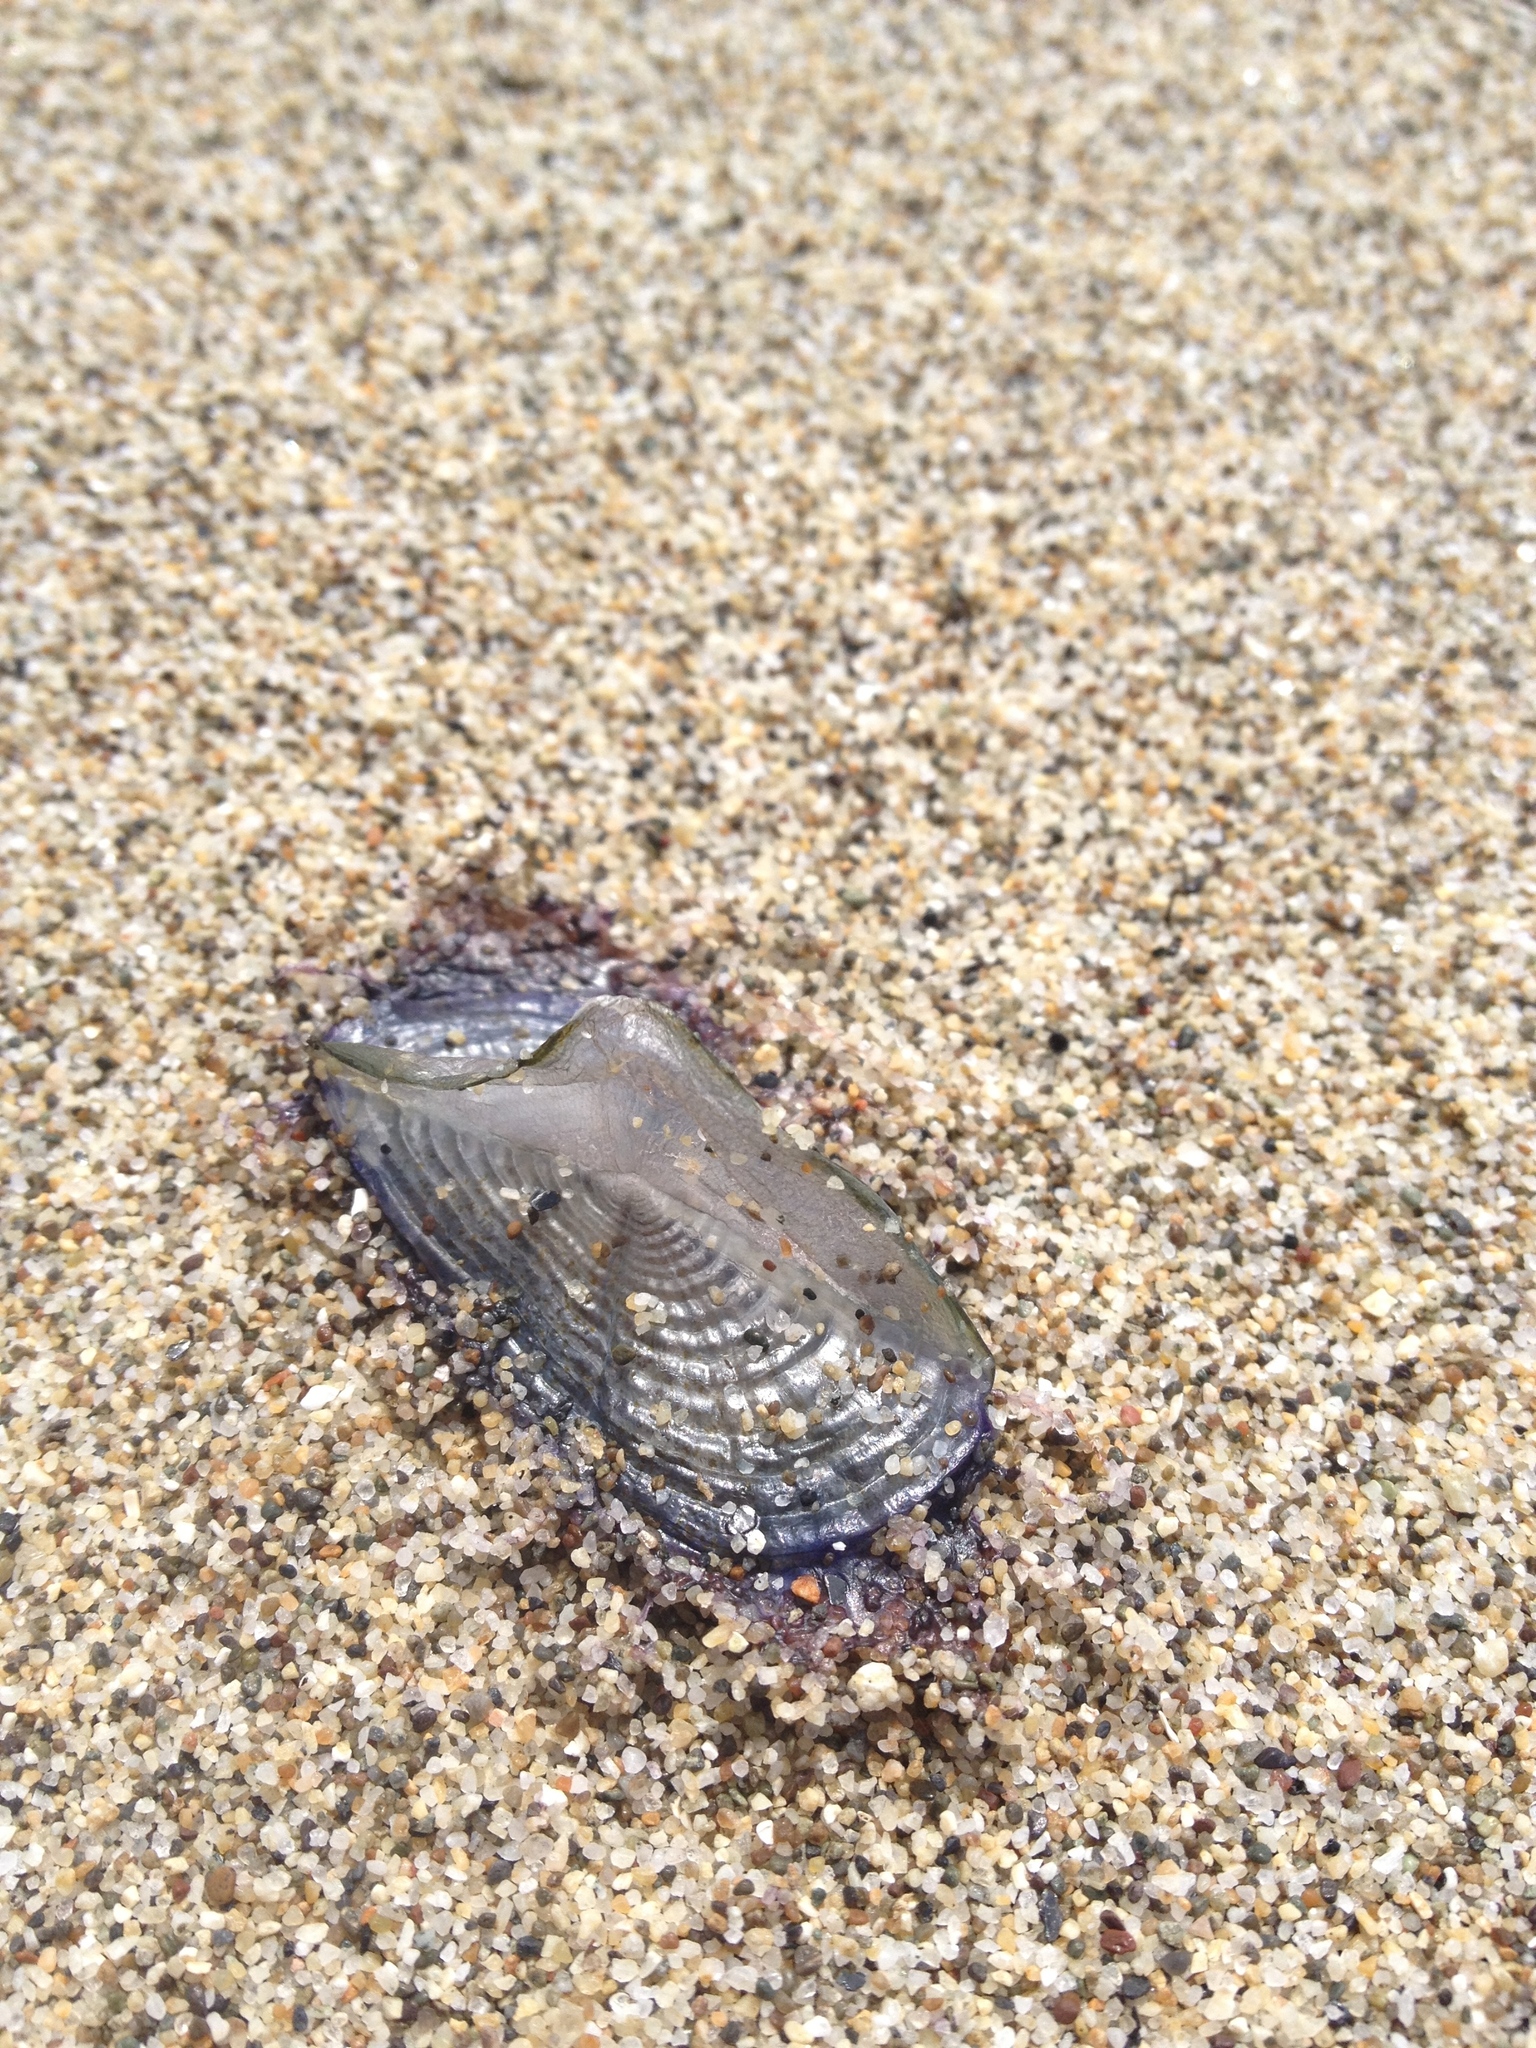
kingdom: Animalia
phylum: Cnidaria
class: Hydrozoa
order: Anthoathecata
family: Porpitidae
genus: Velella
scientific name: Velella velella
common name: By-the-wind-sailor
